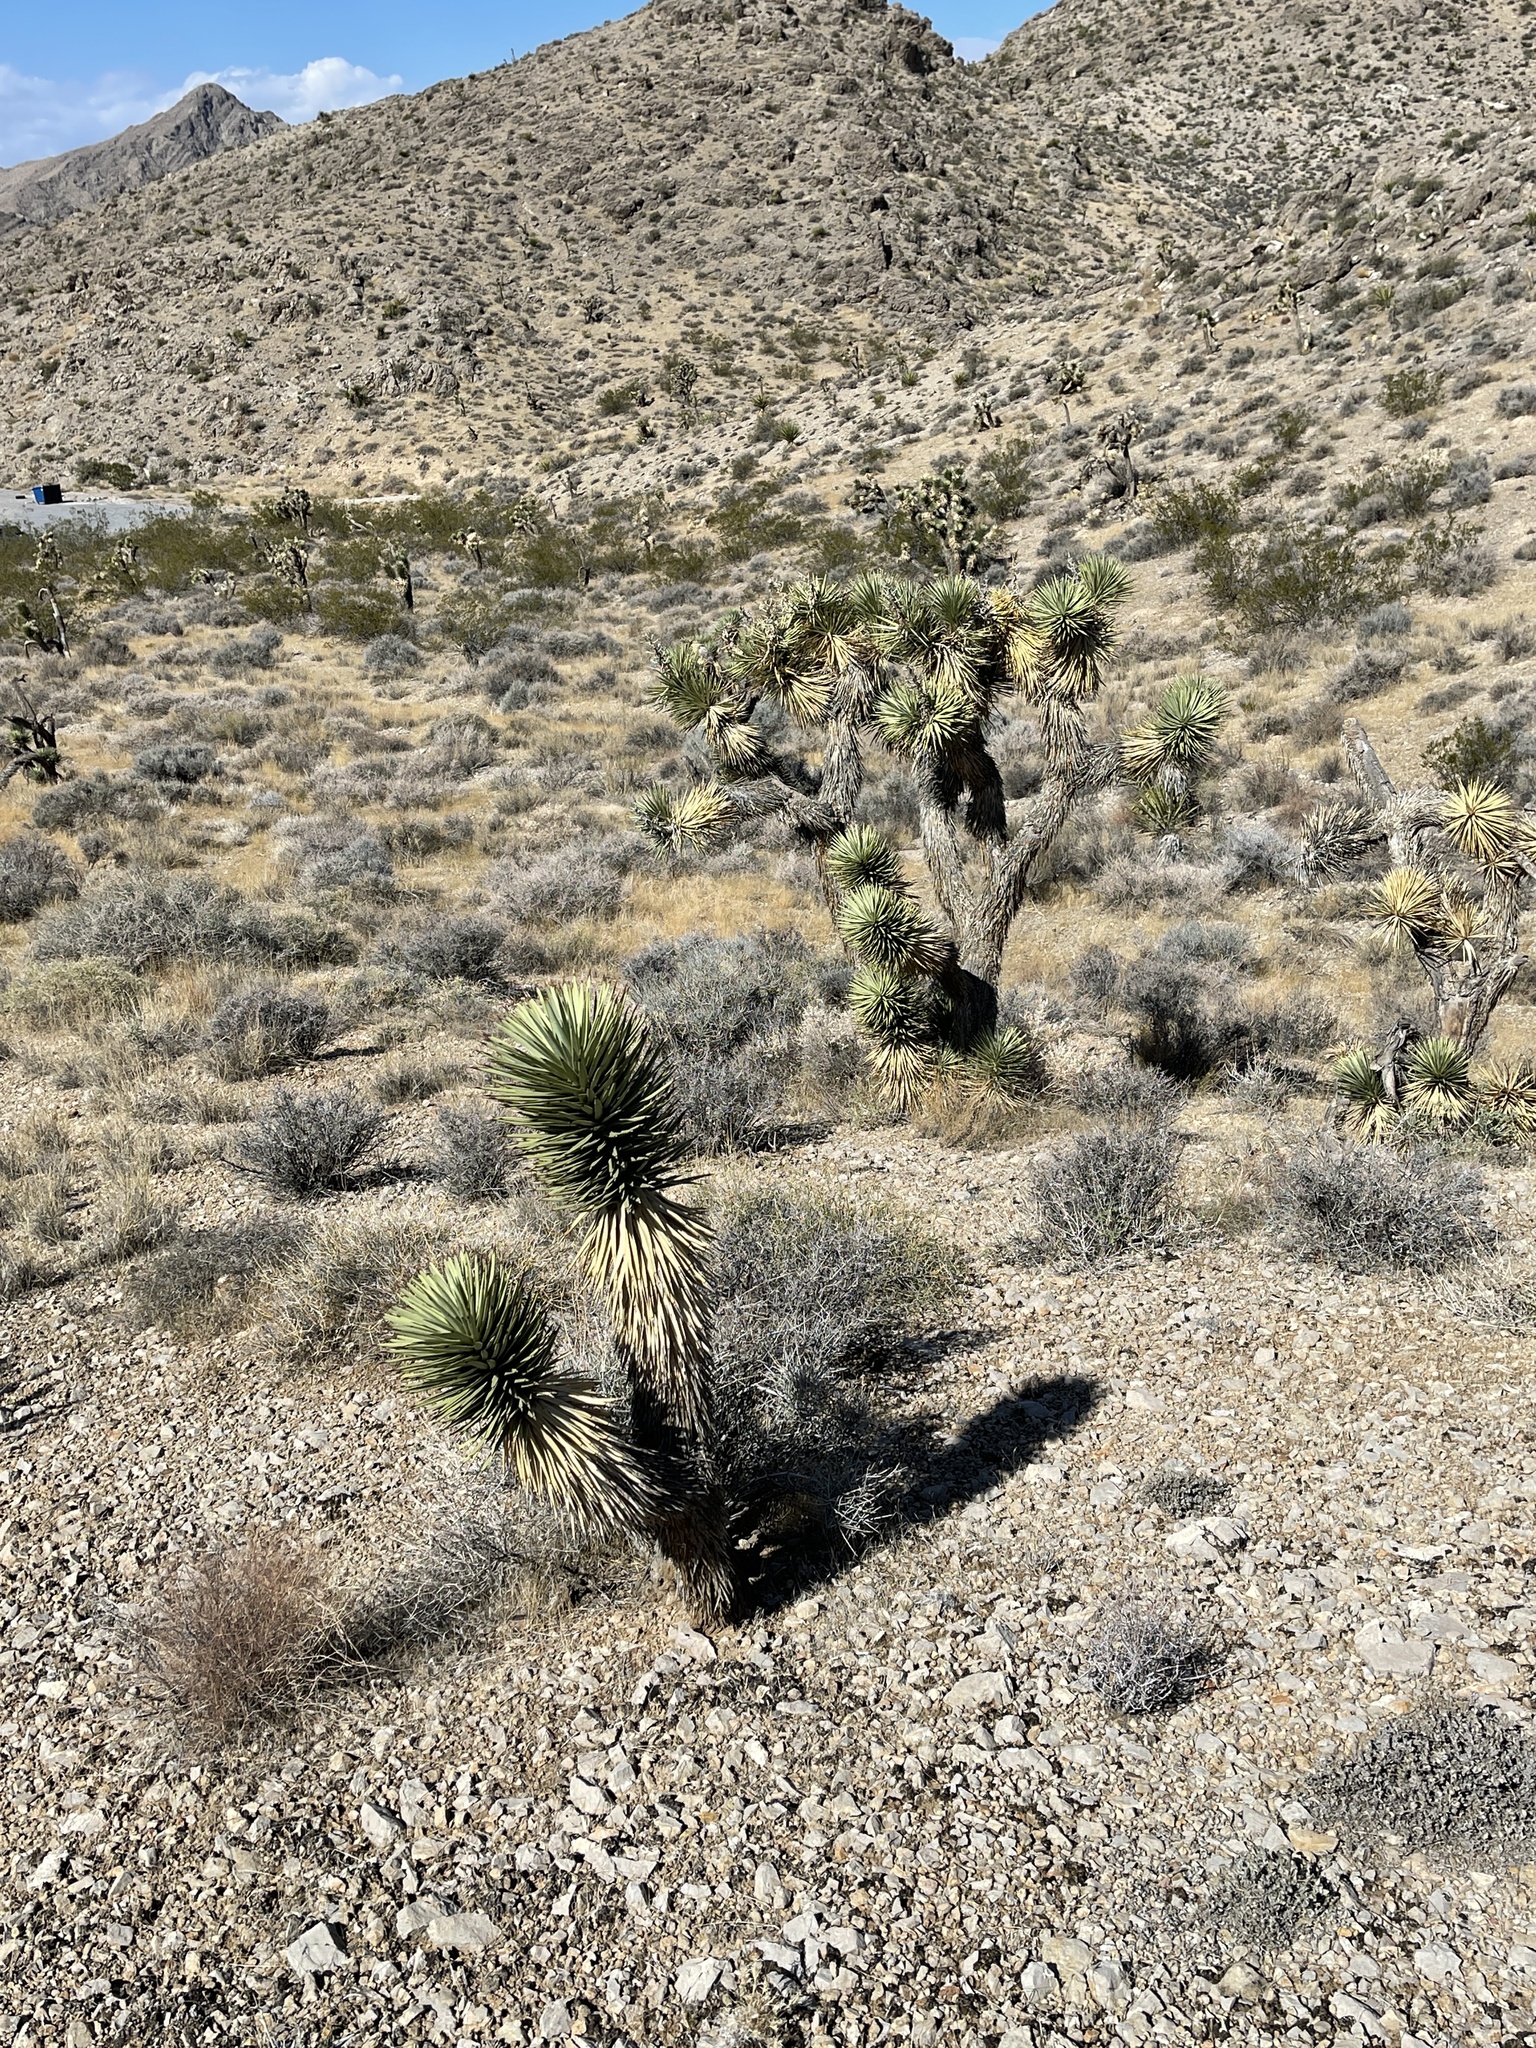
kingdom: Plantae
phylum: Tracheophyta
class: Liliopsida
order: Asparagales
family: Asparagaceae
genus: Yucca
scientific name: Yucca brevifolia
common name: Joshua tree
